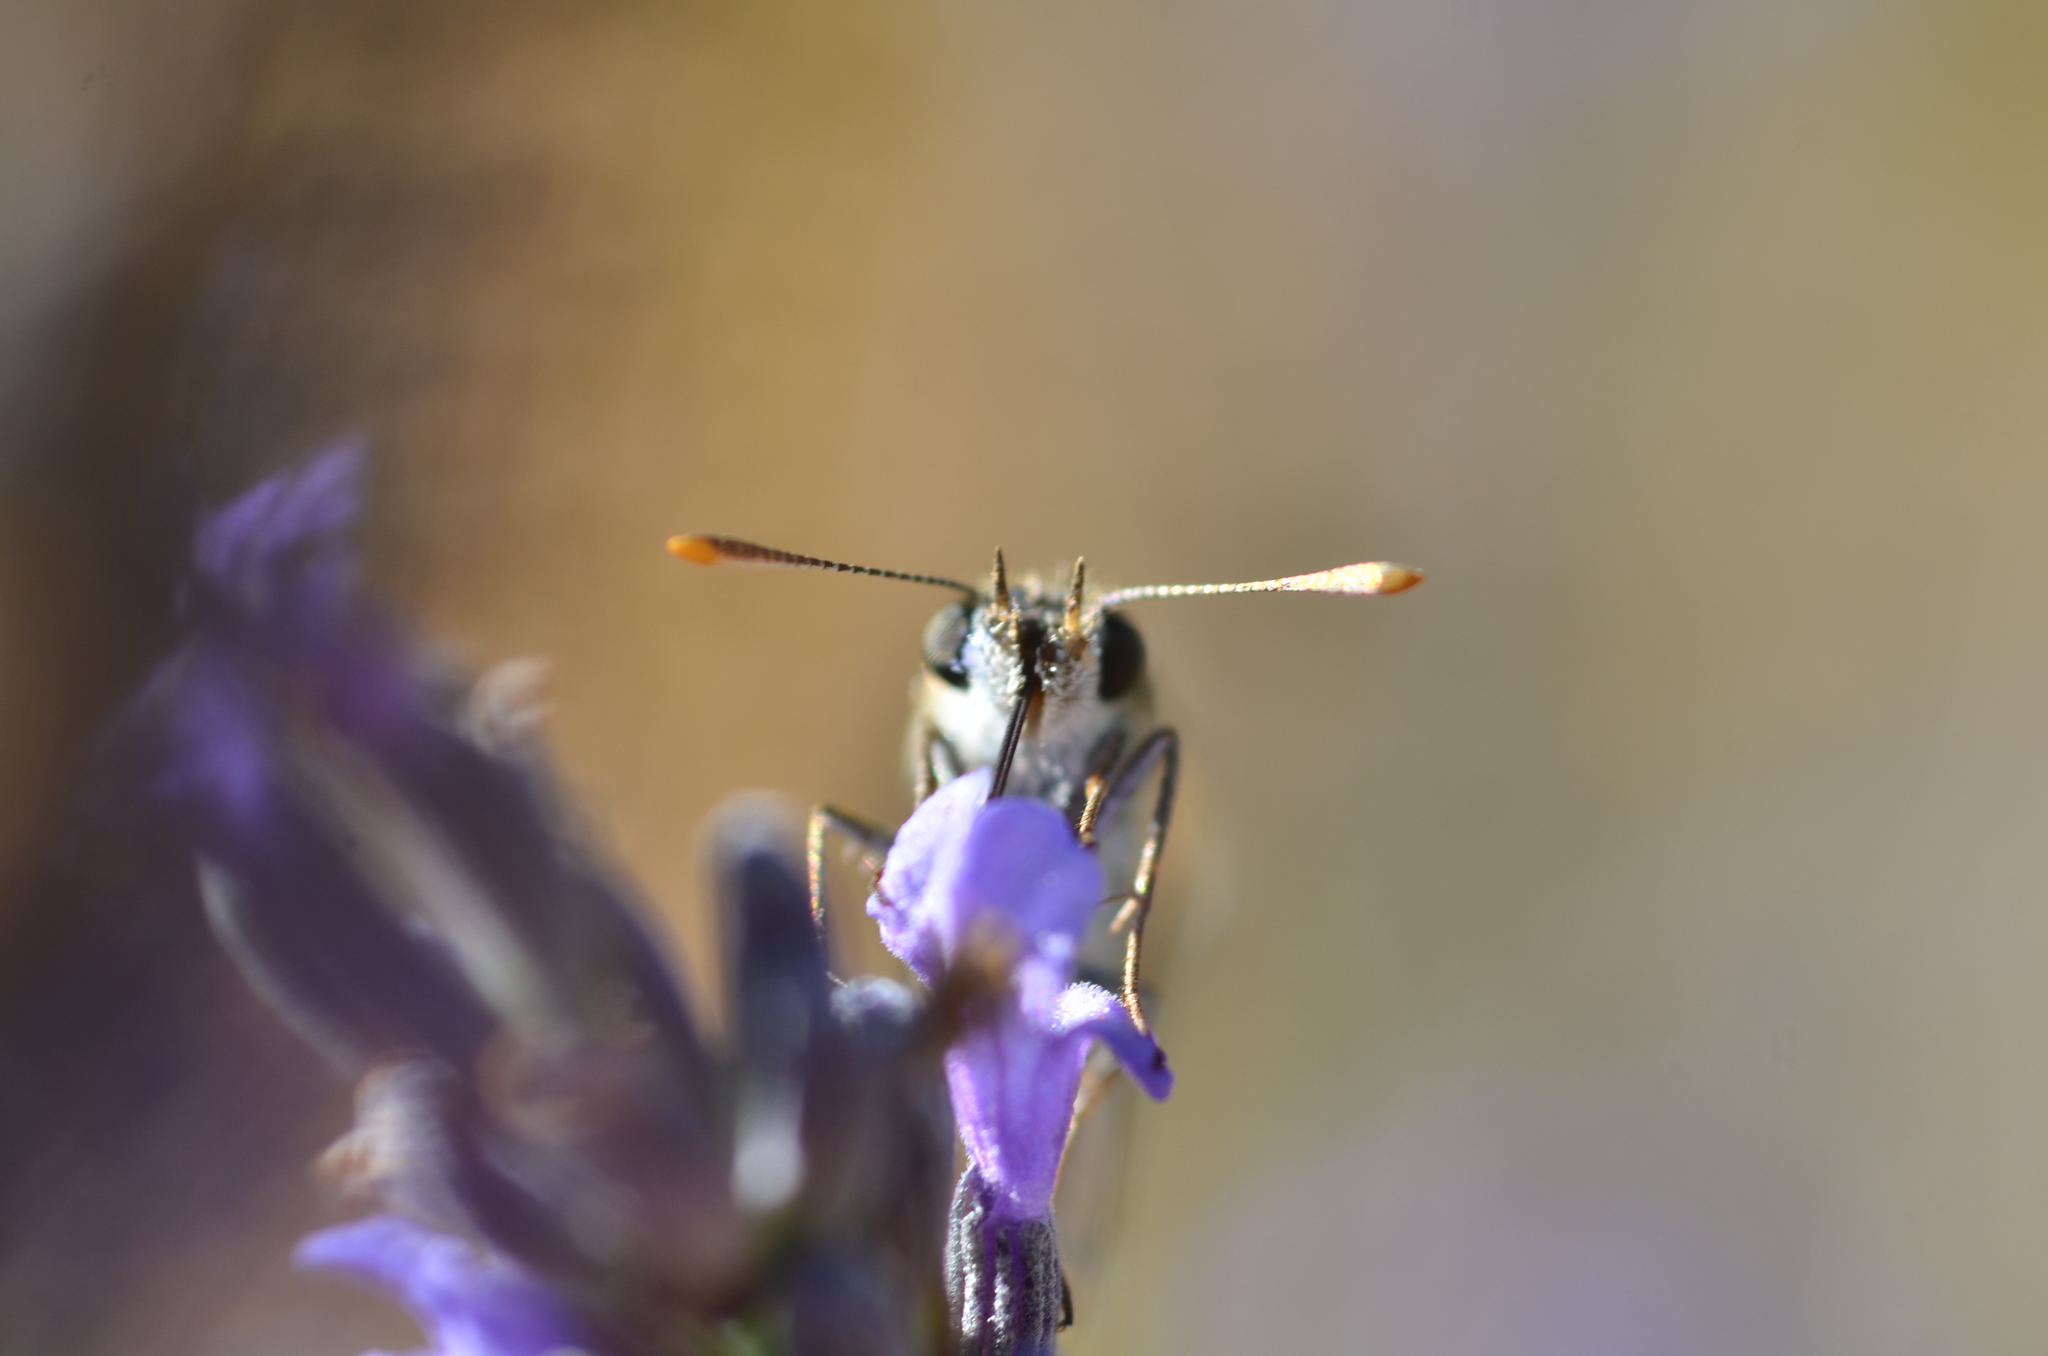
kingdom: Animalia
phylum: Arthropoda
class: Insecta
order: Lepidoptera
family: Hesperiidae
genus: Thymelicus
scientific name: Thymelicus acteon
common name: Lulworth skipper
